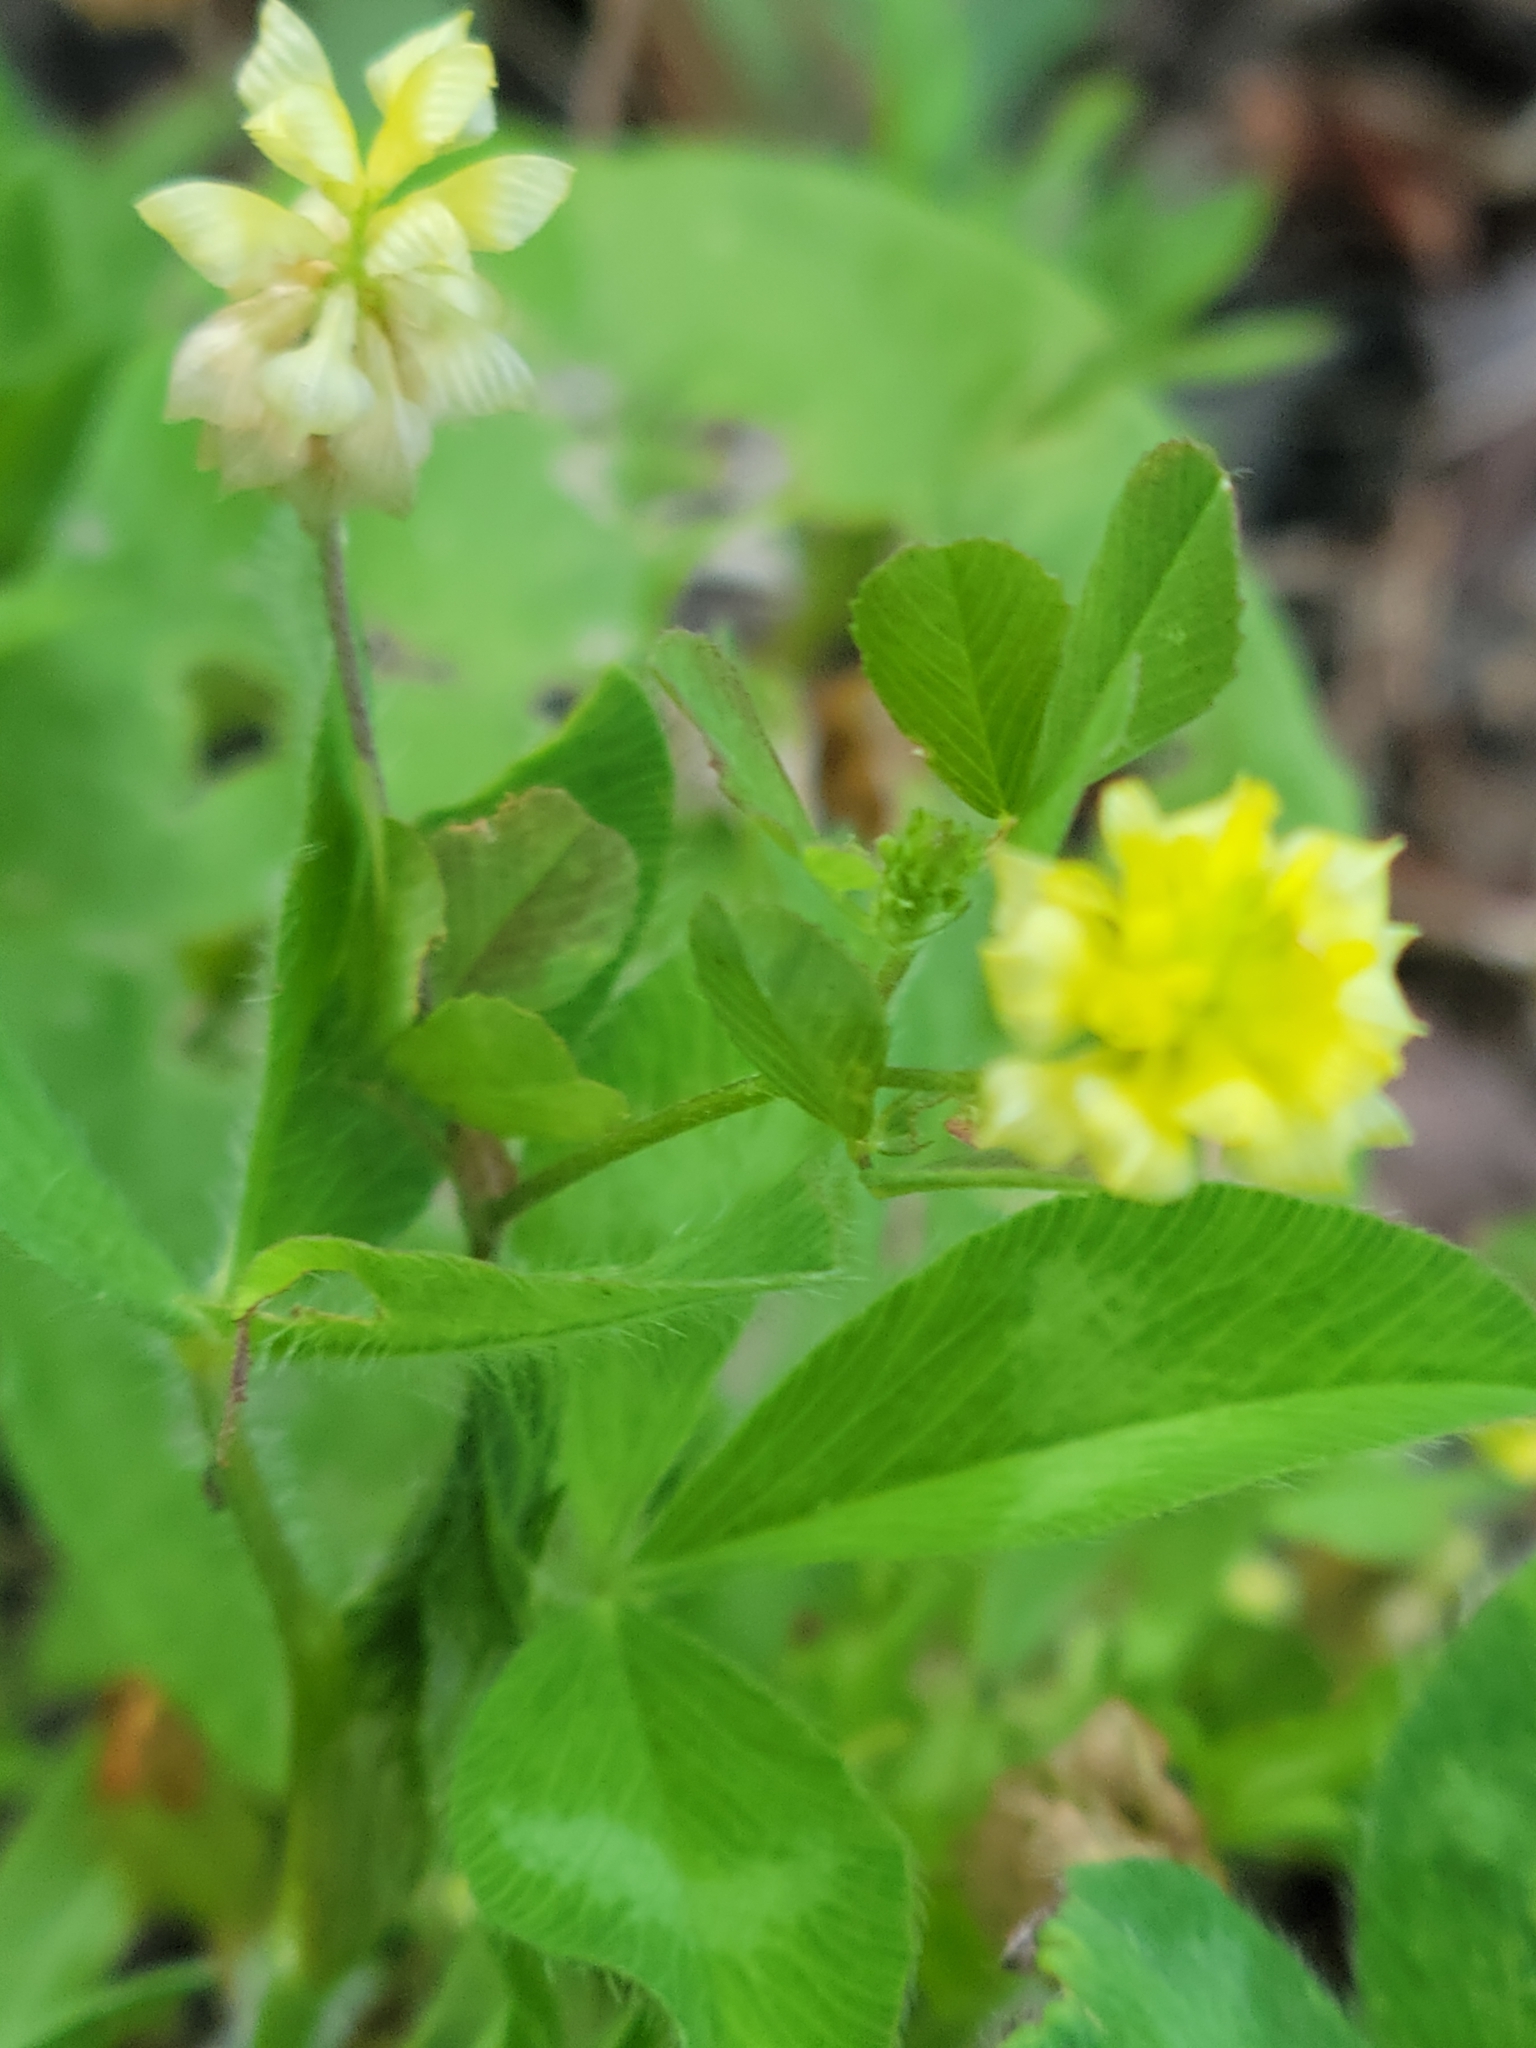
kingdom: Plantae
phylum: Tracheophyta
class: Magnoliopsida
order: Fabales
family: Fabaceae
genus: Trifolium
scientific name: Trifolium campestre
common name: Field clover
